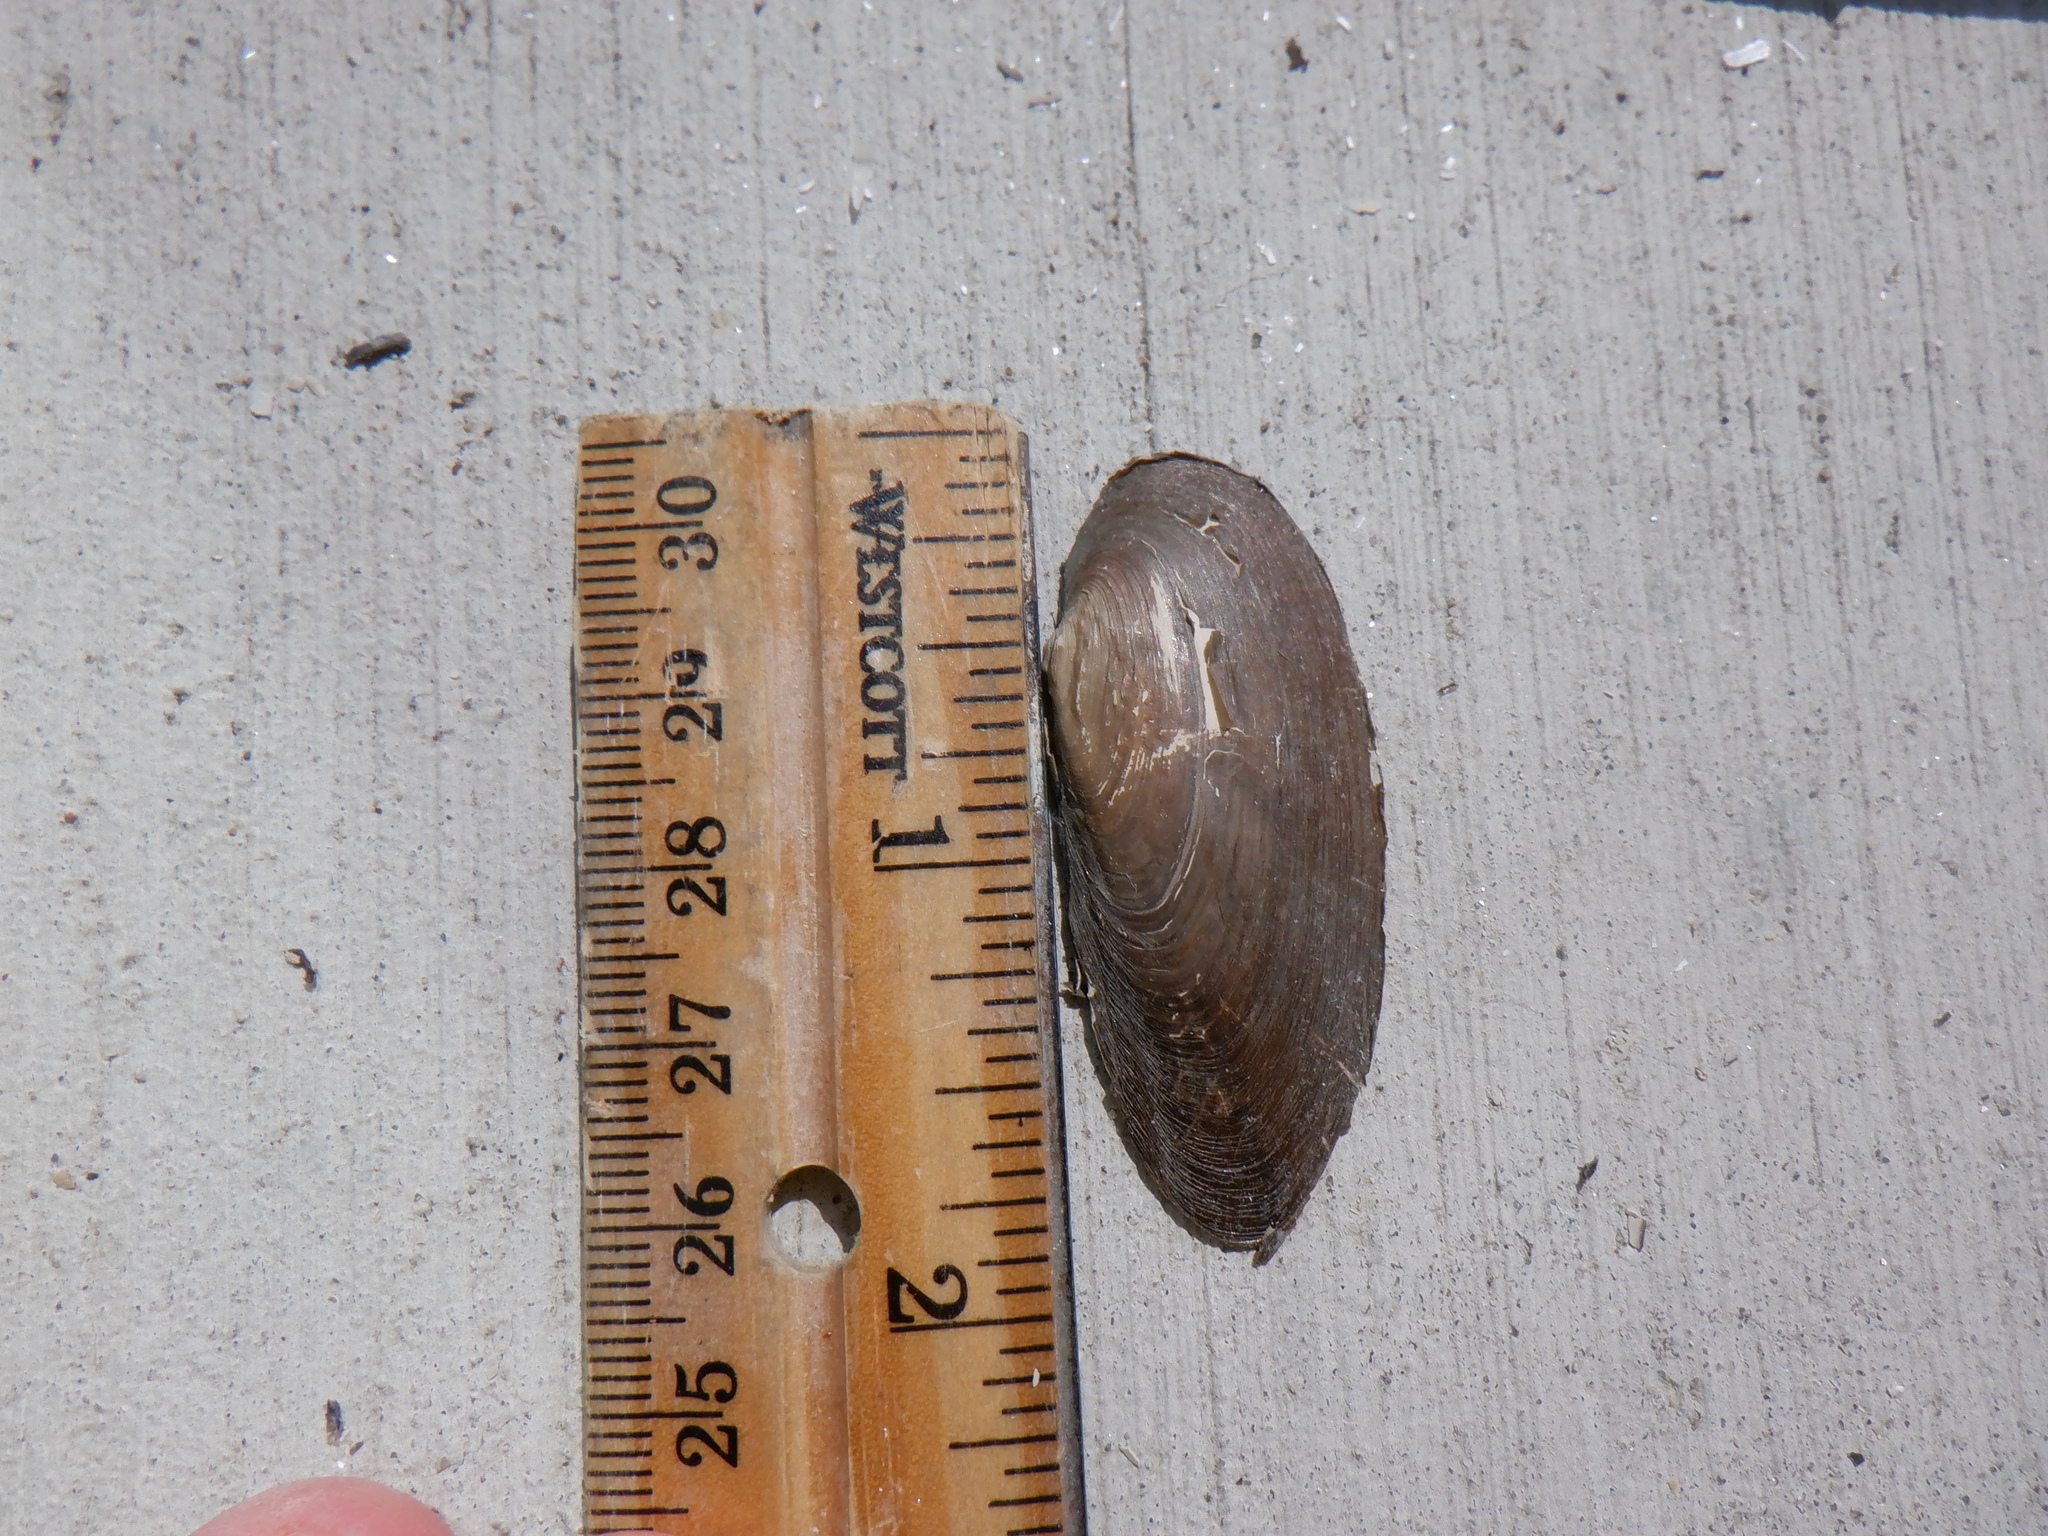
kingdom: Animalia
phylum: Mollusca
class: Bivalvia
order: Unionida
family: Unionidae
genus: Eurynia
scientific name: Eurynia dilatata
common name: Spike
